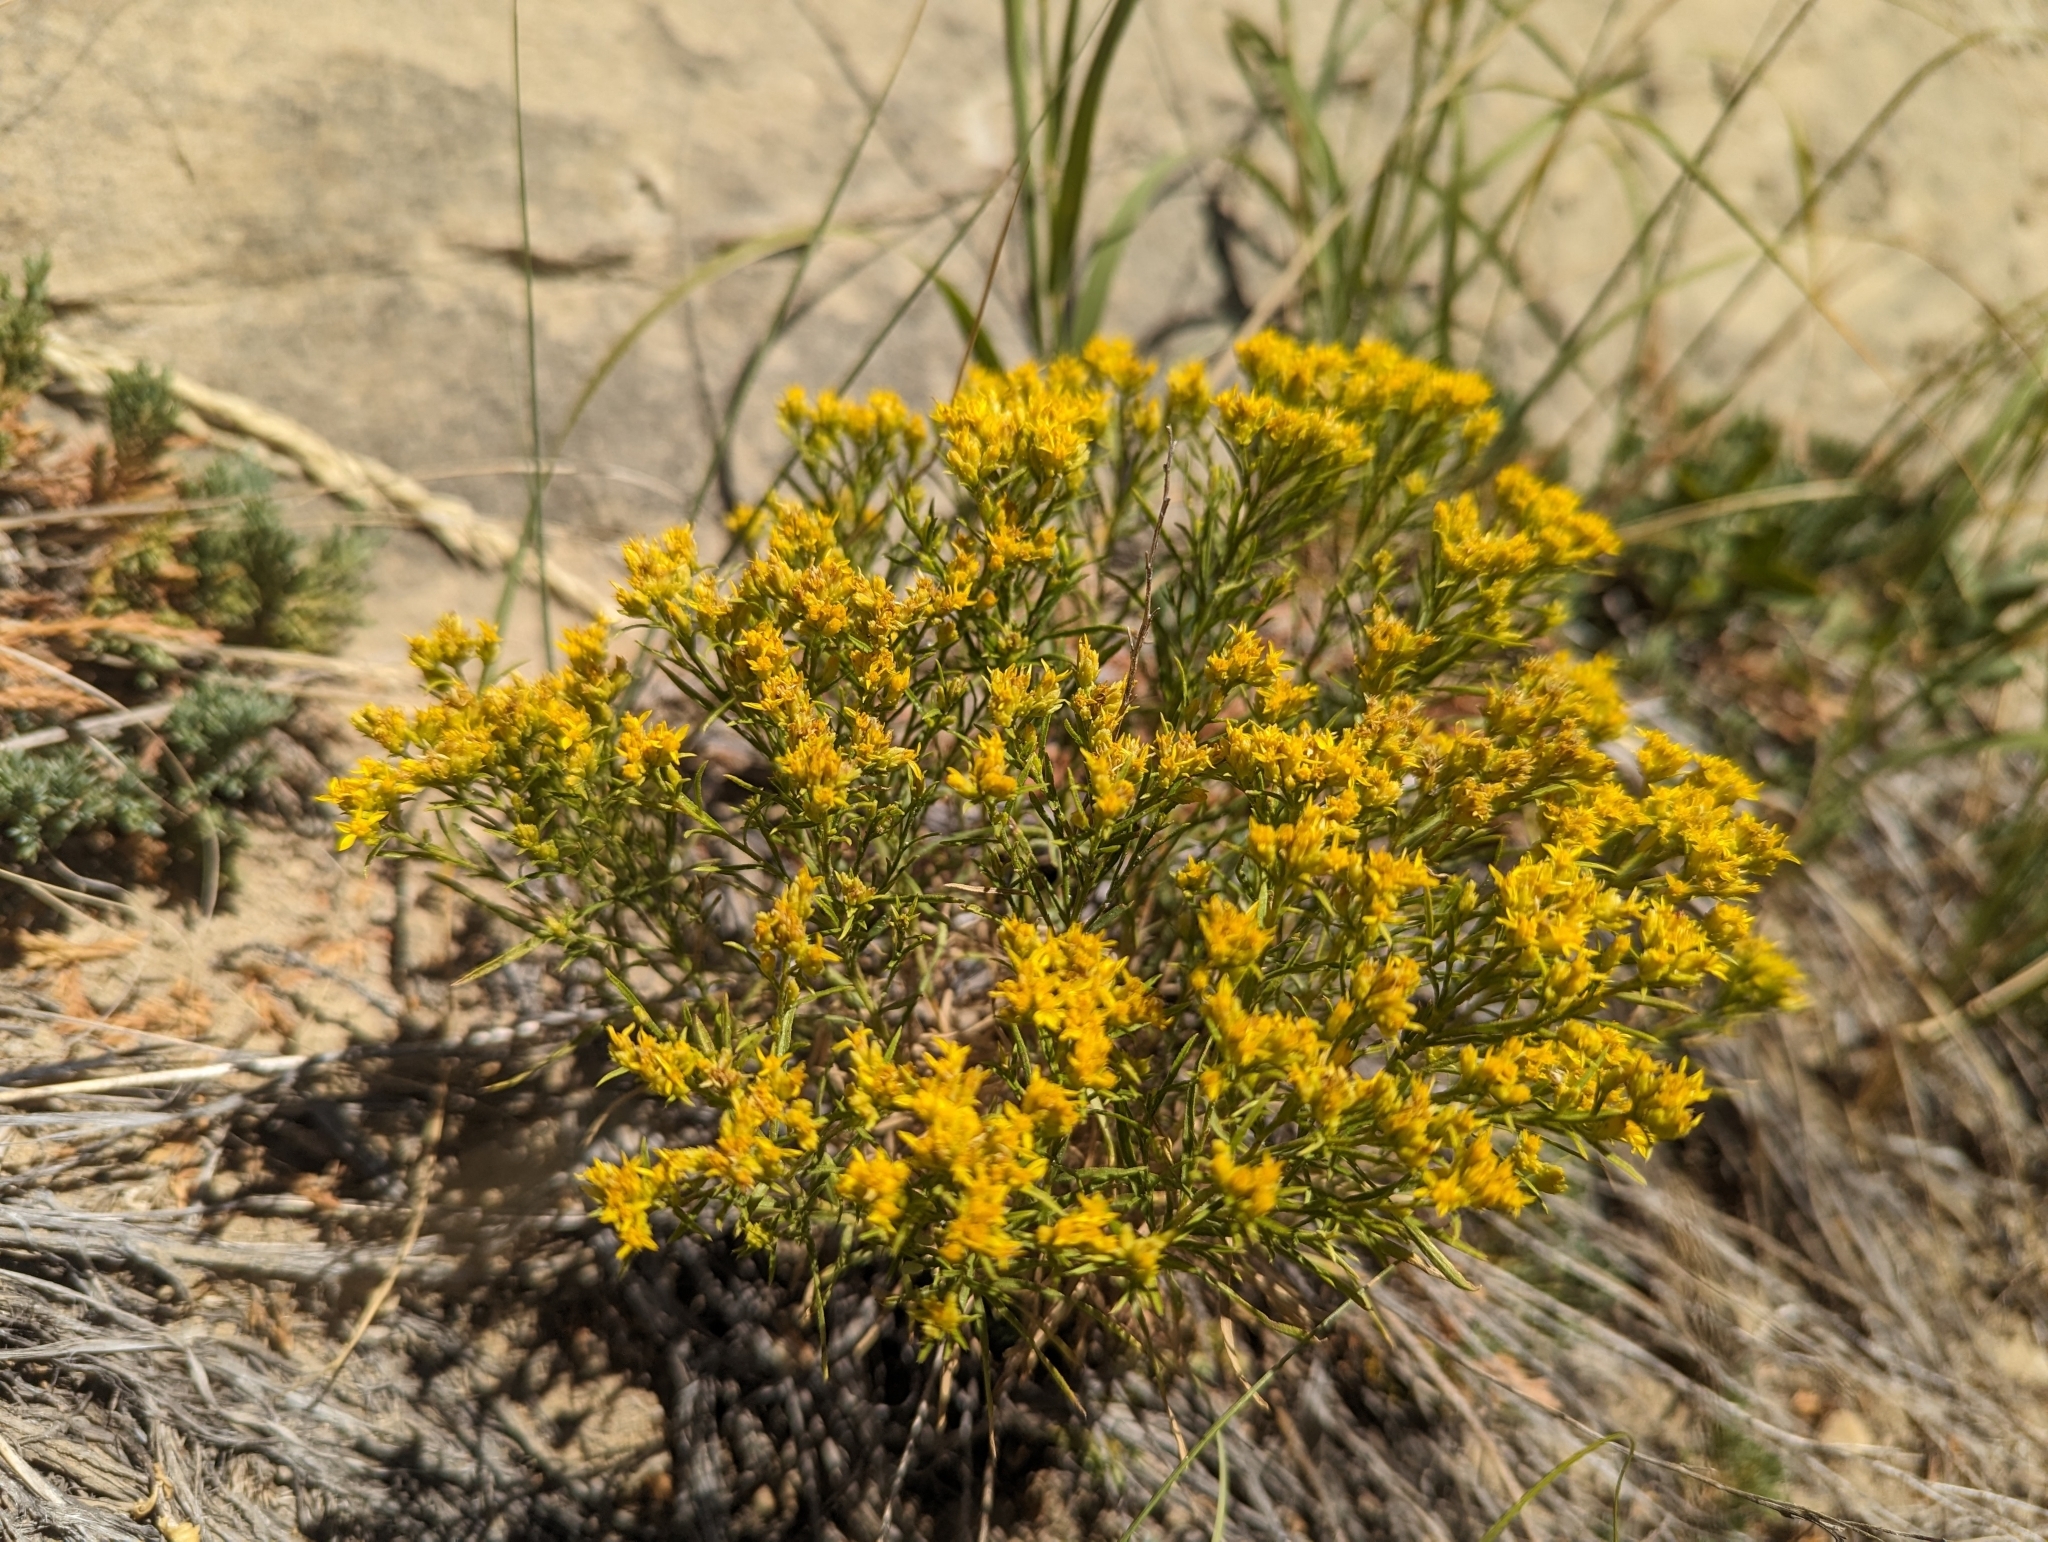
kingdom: Plantae
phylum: Tracheophyta
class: Magnoliopsida
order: Asterales
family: Asteraceae
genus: Gutierrezia
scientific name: Gutierrezia sarothrae
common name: Broom snakeweed
